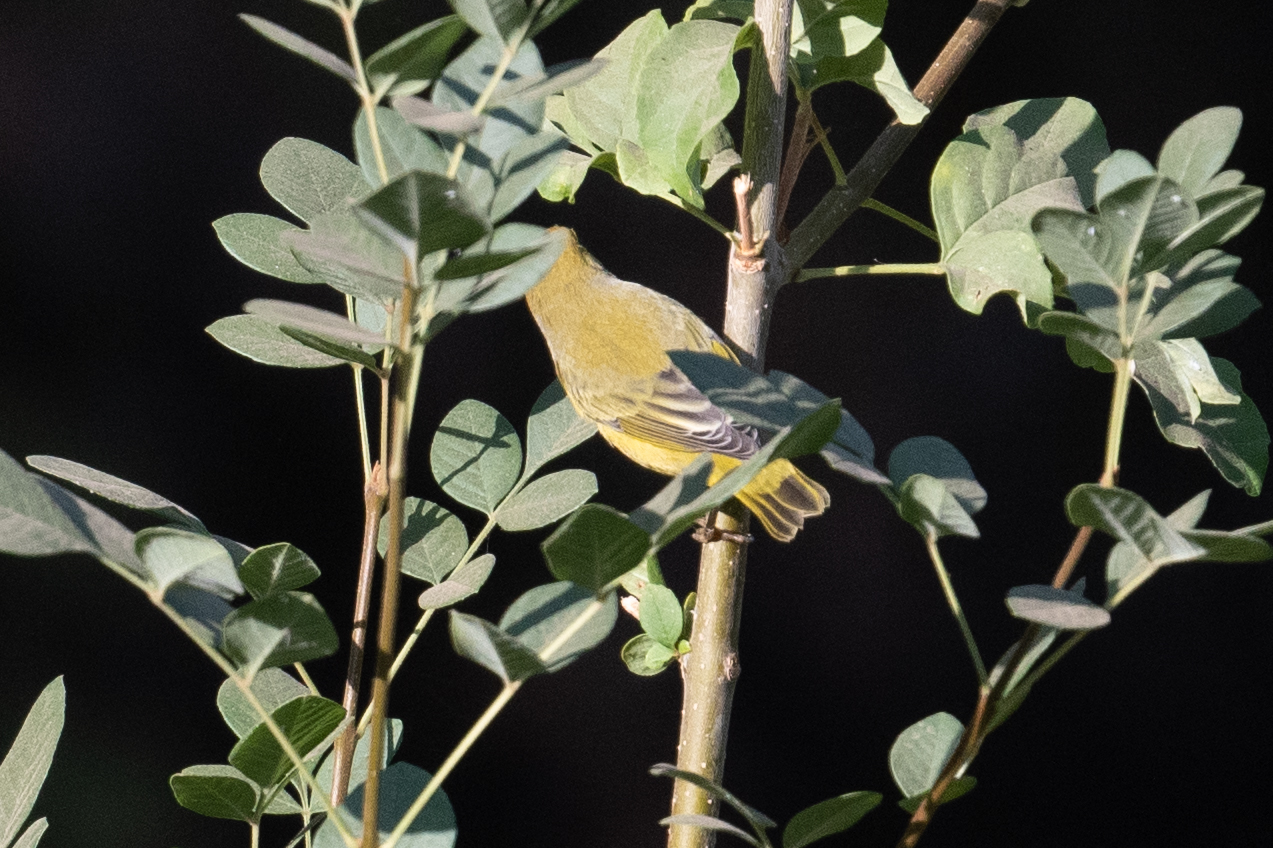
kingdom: Animalia
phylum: Chordata
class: Aves
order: Passeriformes
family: Parulidae
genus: Setophaga
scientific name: Setophaga petechia
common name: Yellow warbler
